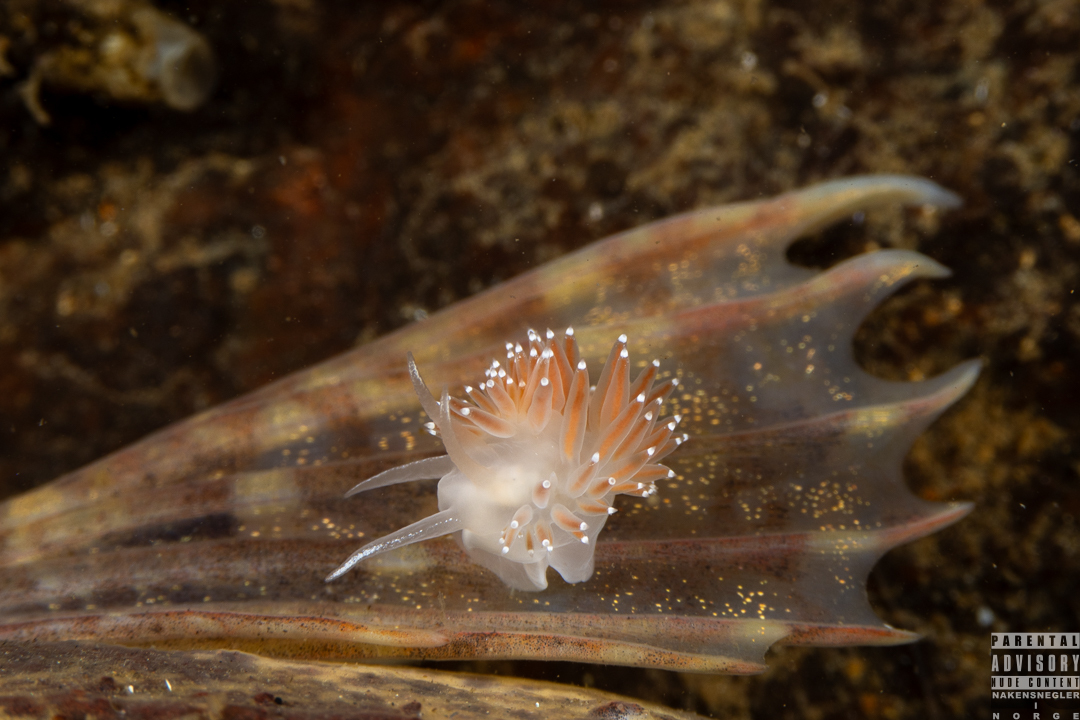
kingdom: Animalia
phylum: Mollusca
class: Gastropoda
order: Nudibranchia
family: Coryphellidae
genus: Coryphella
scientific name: Coryphella verrucosa
